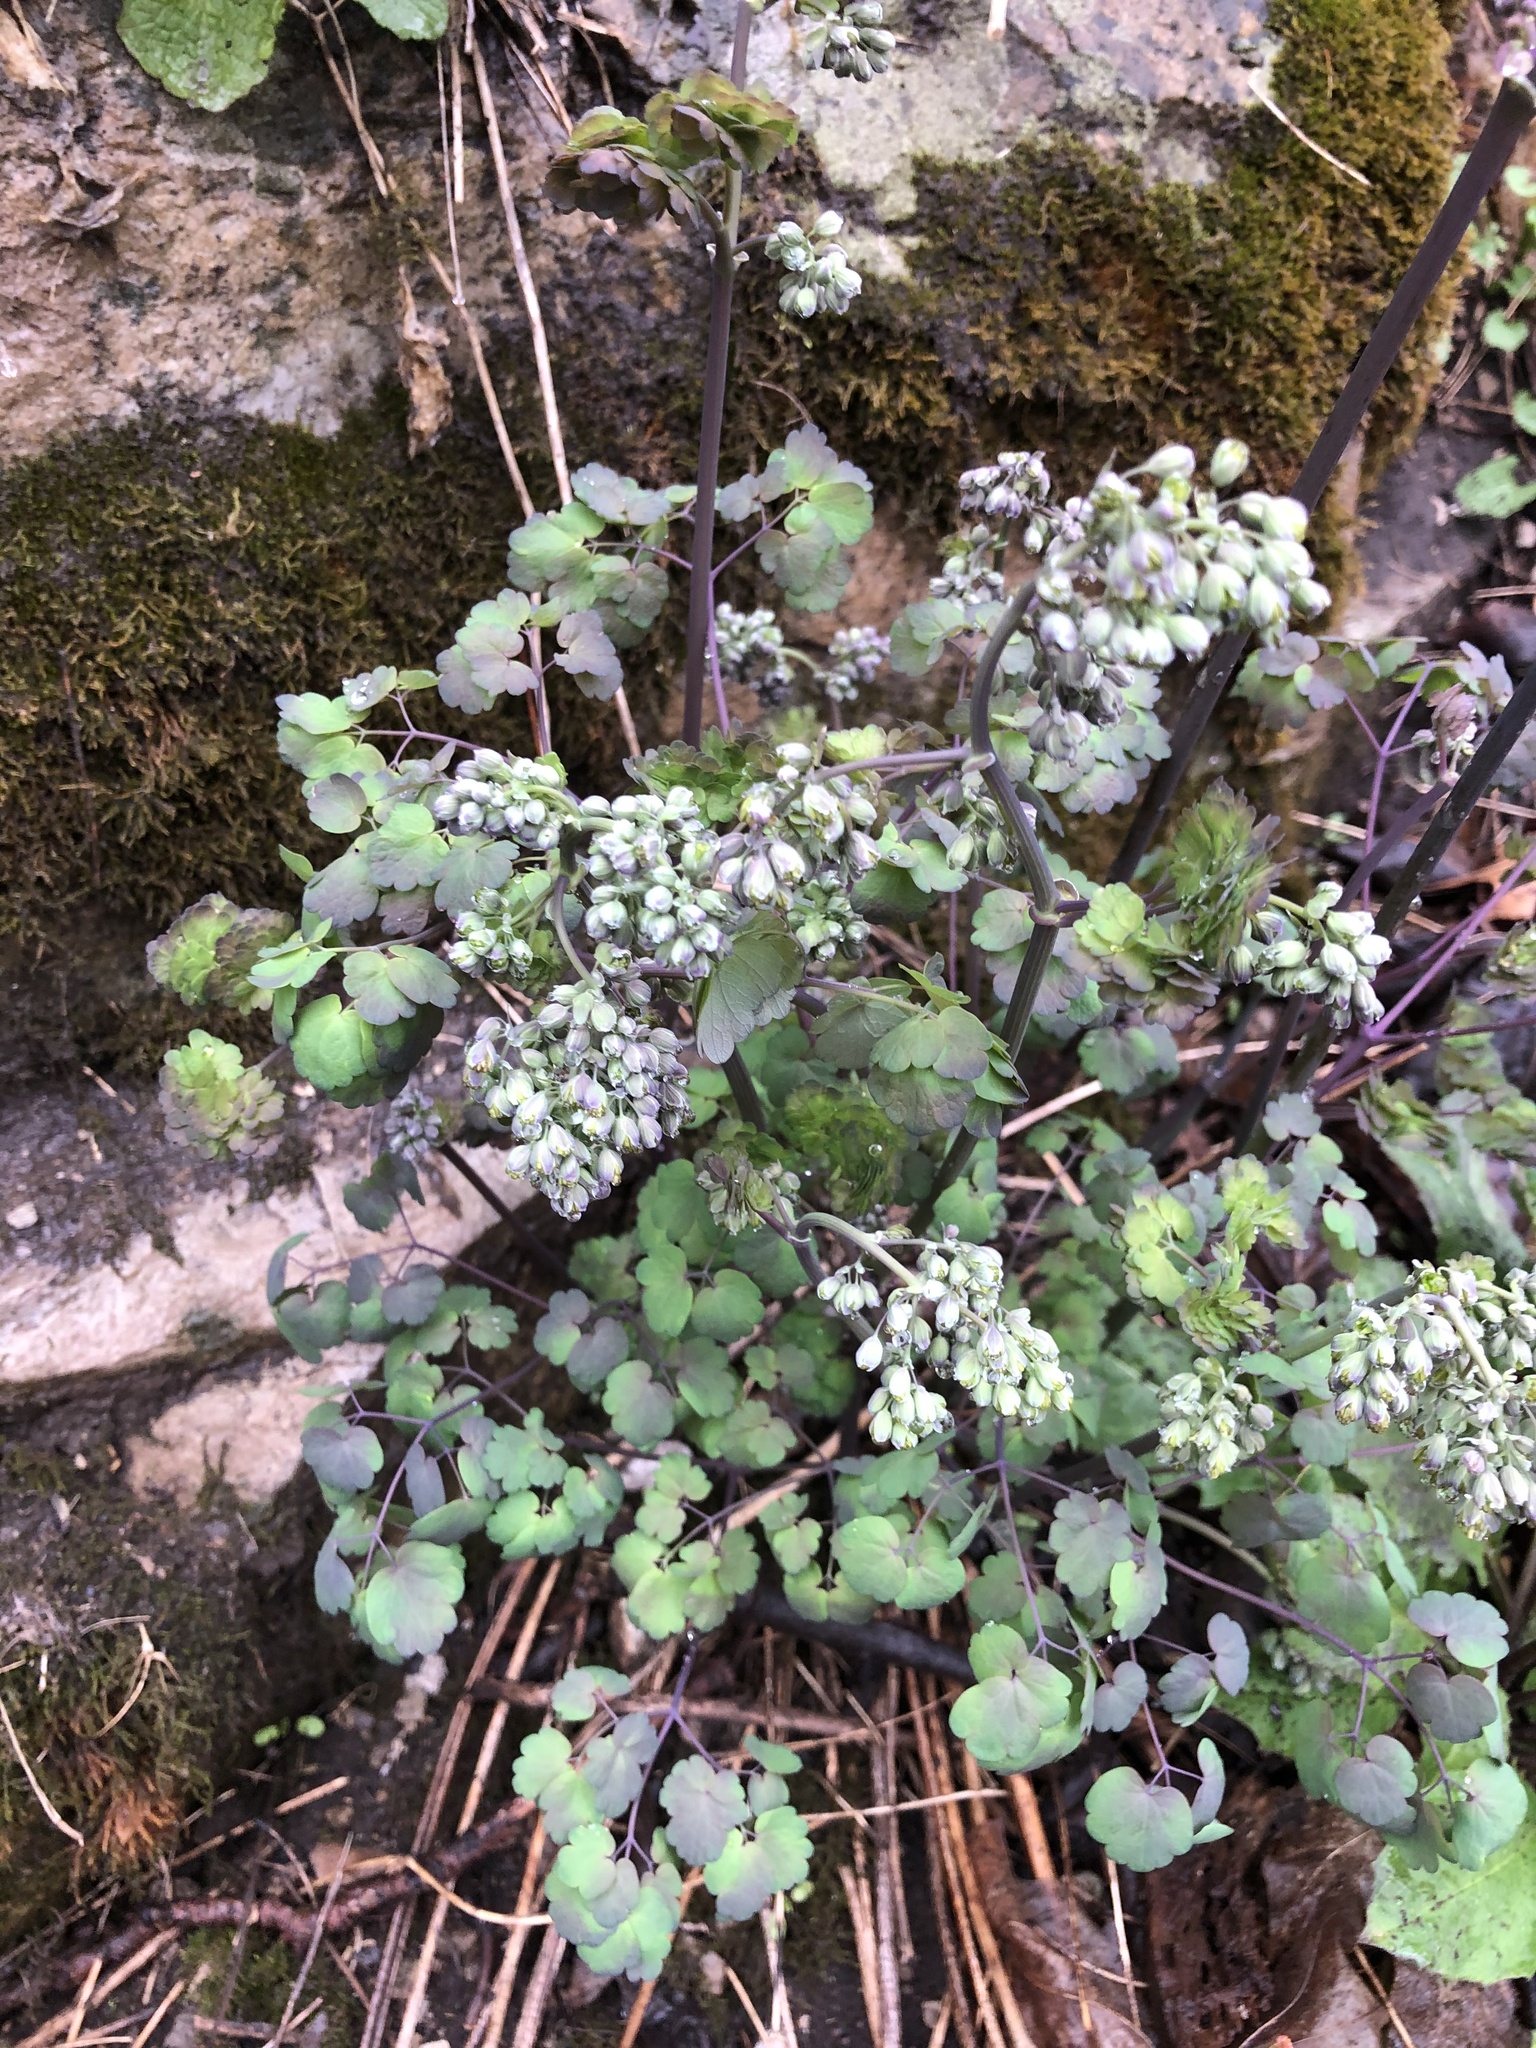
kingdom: Plantae
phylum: Tracheophyta
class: Magnoliopsida
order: Ranunculales
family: Ranunculaceae
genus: Thalictrum
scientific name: Thalictrum dioicum
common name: Early meadow-rue
